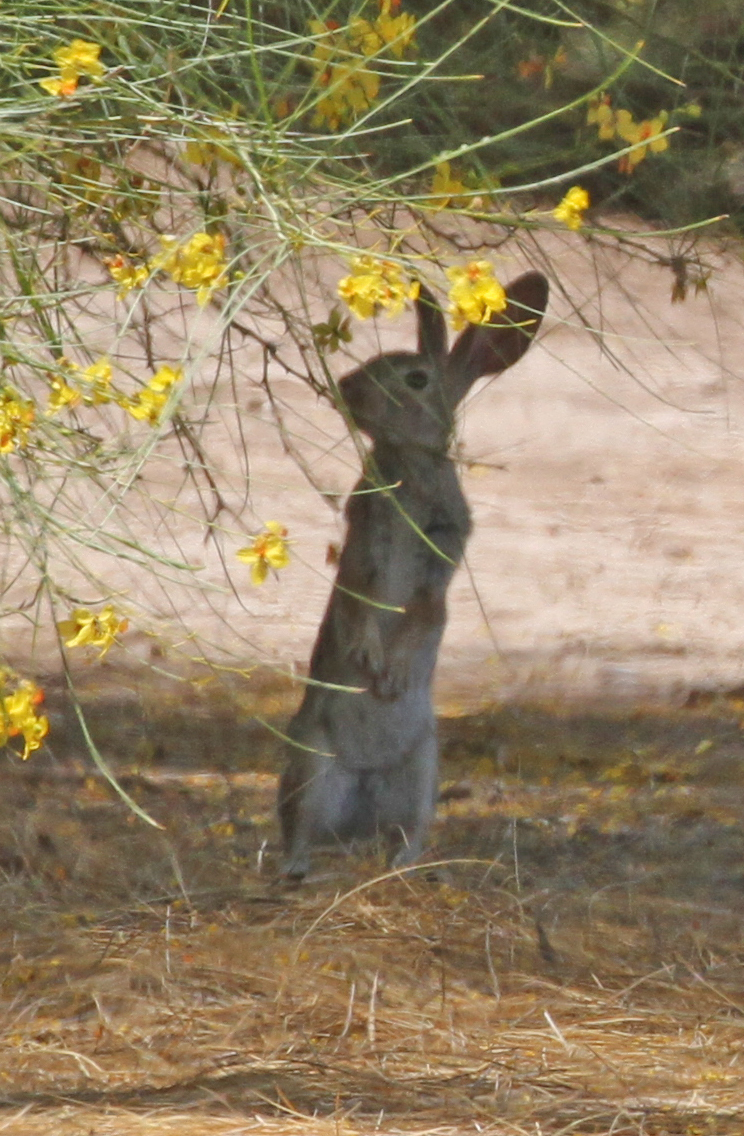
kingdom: Animalia
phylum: Chordata
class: Mammalia
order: Lagomorpha
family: Leporidae
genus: Sylvilagus
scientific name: Sylvilagus audubonii
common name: Desert cottontail
